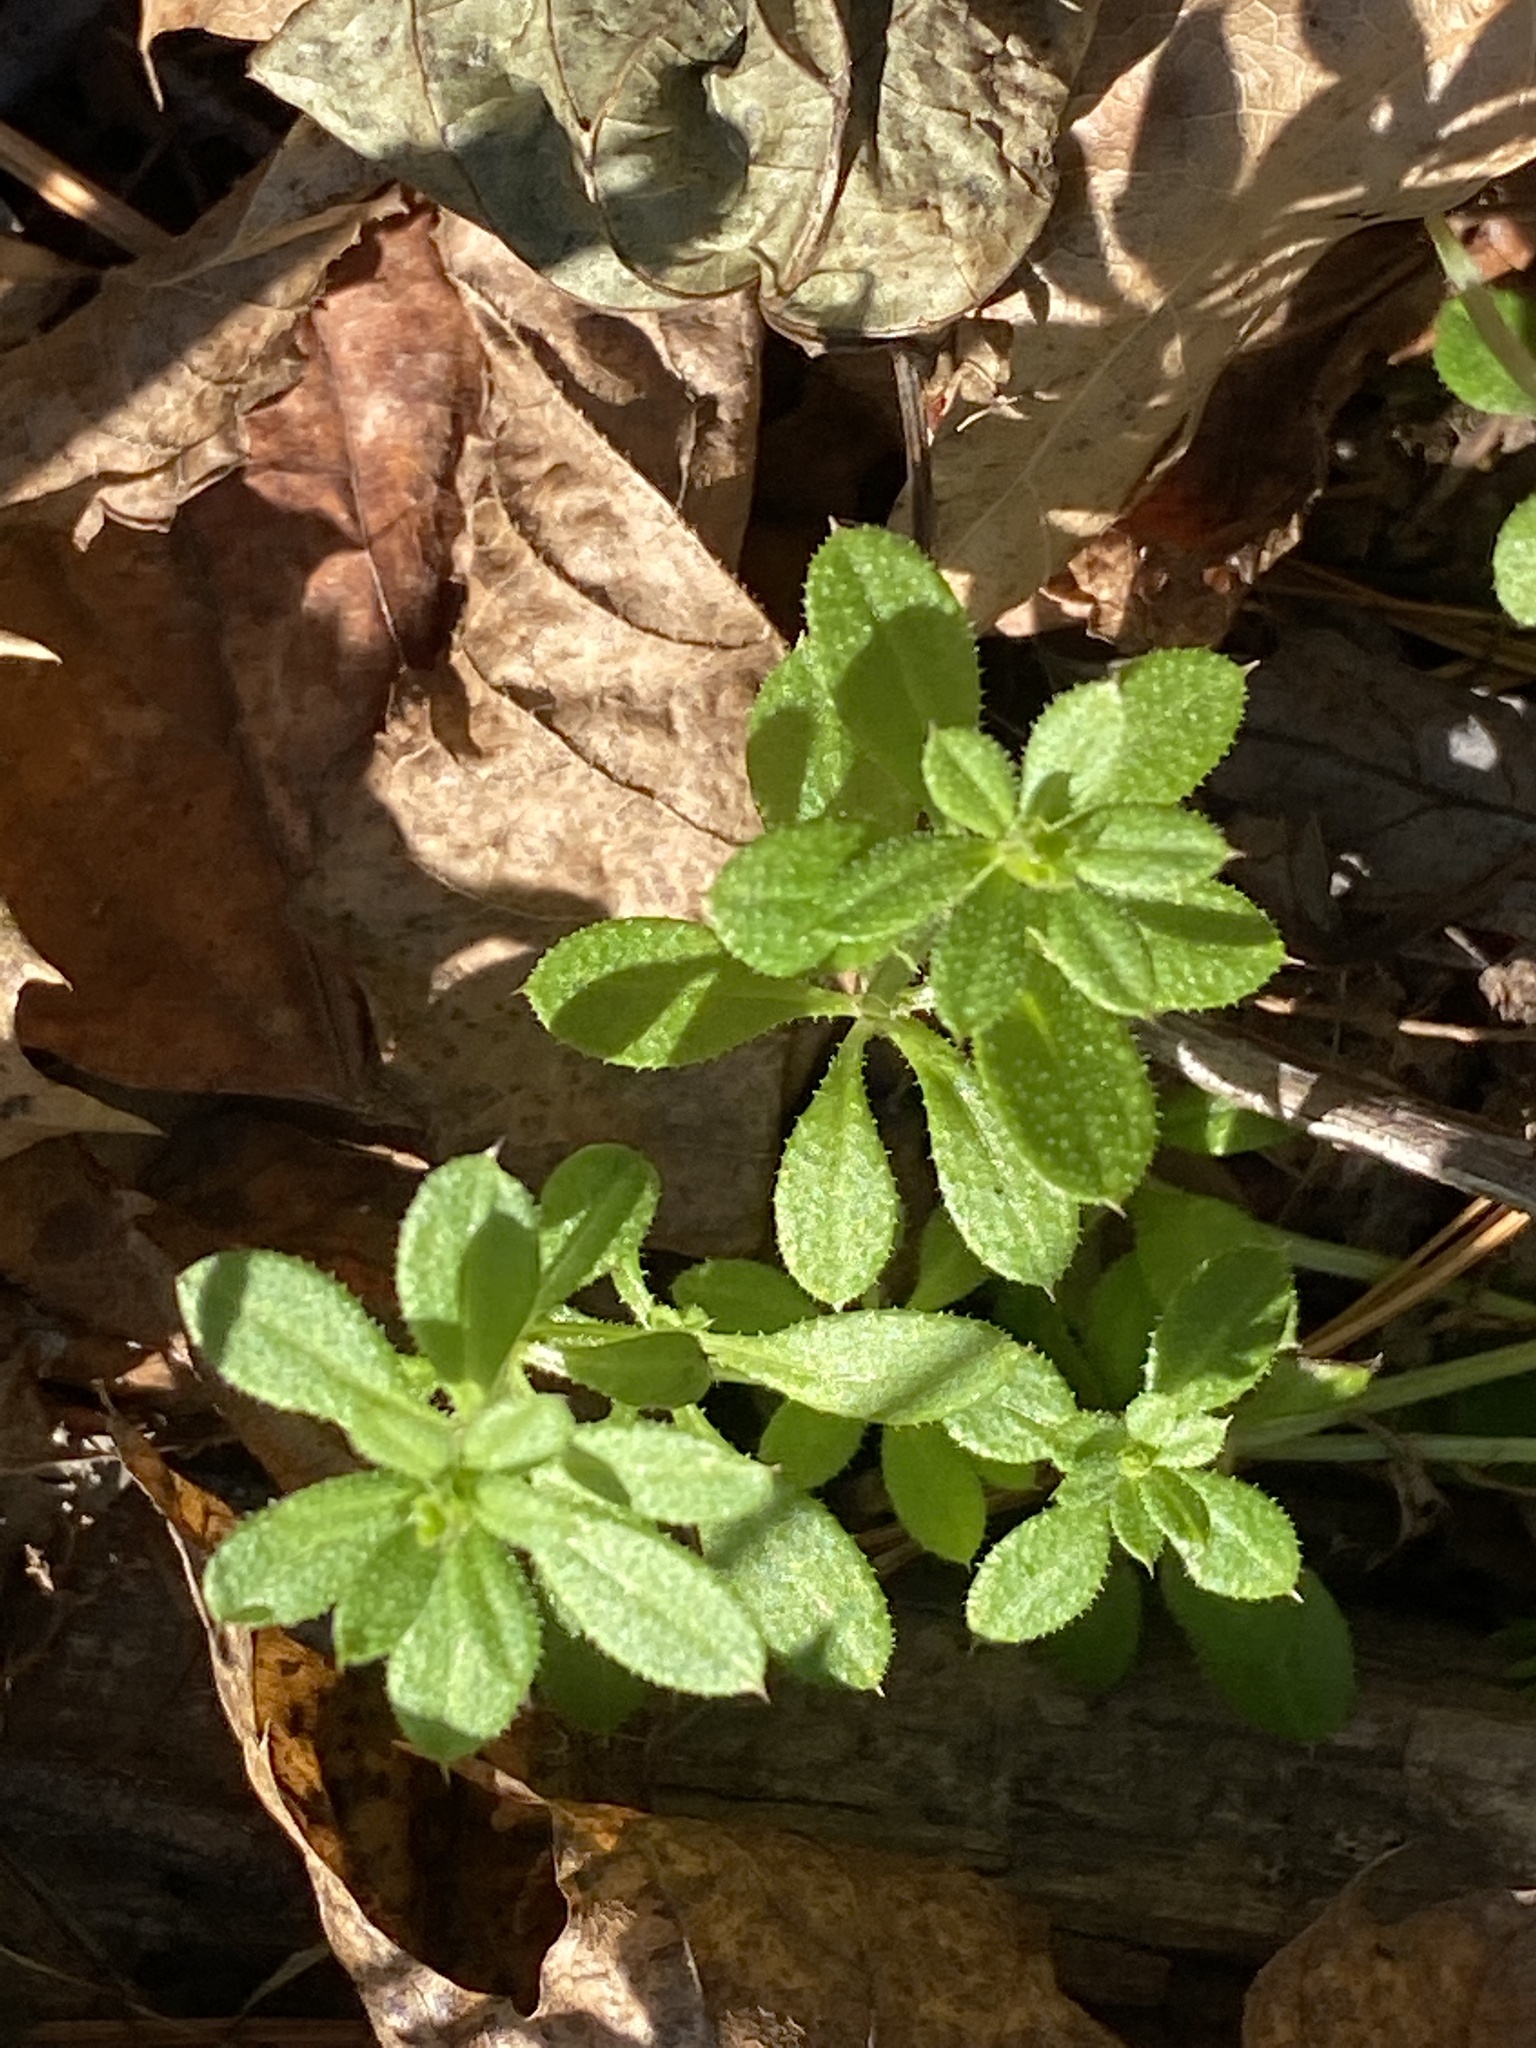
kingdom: Plantae
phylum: Tracheophyta
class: Magnoliopsida
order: Gentianales
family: Rubiaceae
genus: Galium
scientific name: Galium aparine
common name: Cleavers
